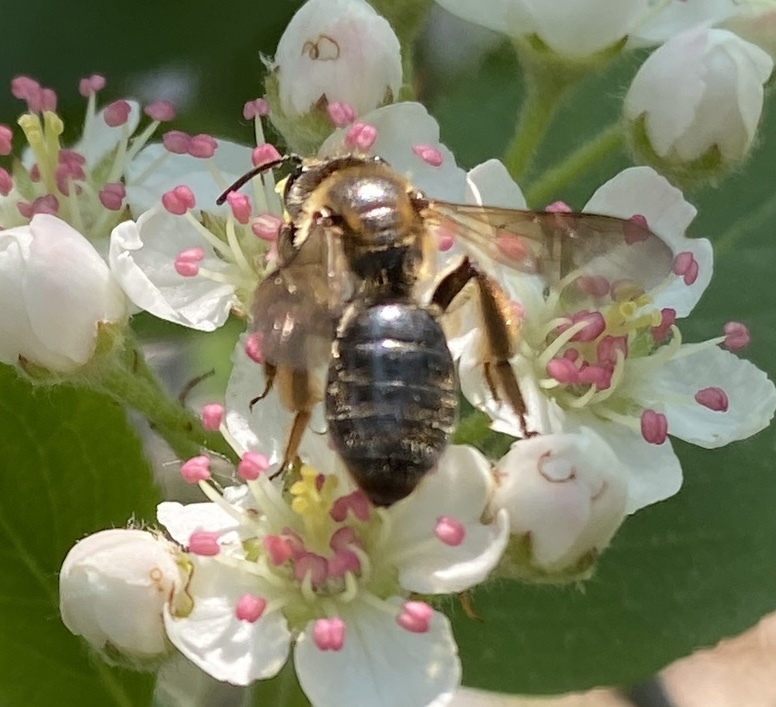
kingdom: Animalia
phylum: Arthropoda
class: Insecta
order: Hymenoptera
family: Andrenidae
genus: Andrena
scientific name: Andrena crataegi
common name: Hawthorn mining bee
